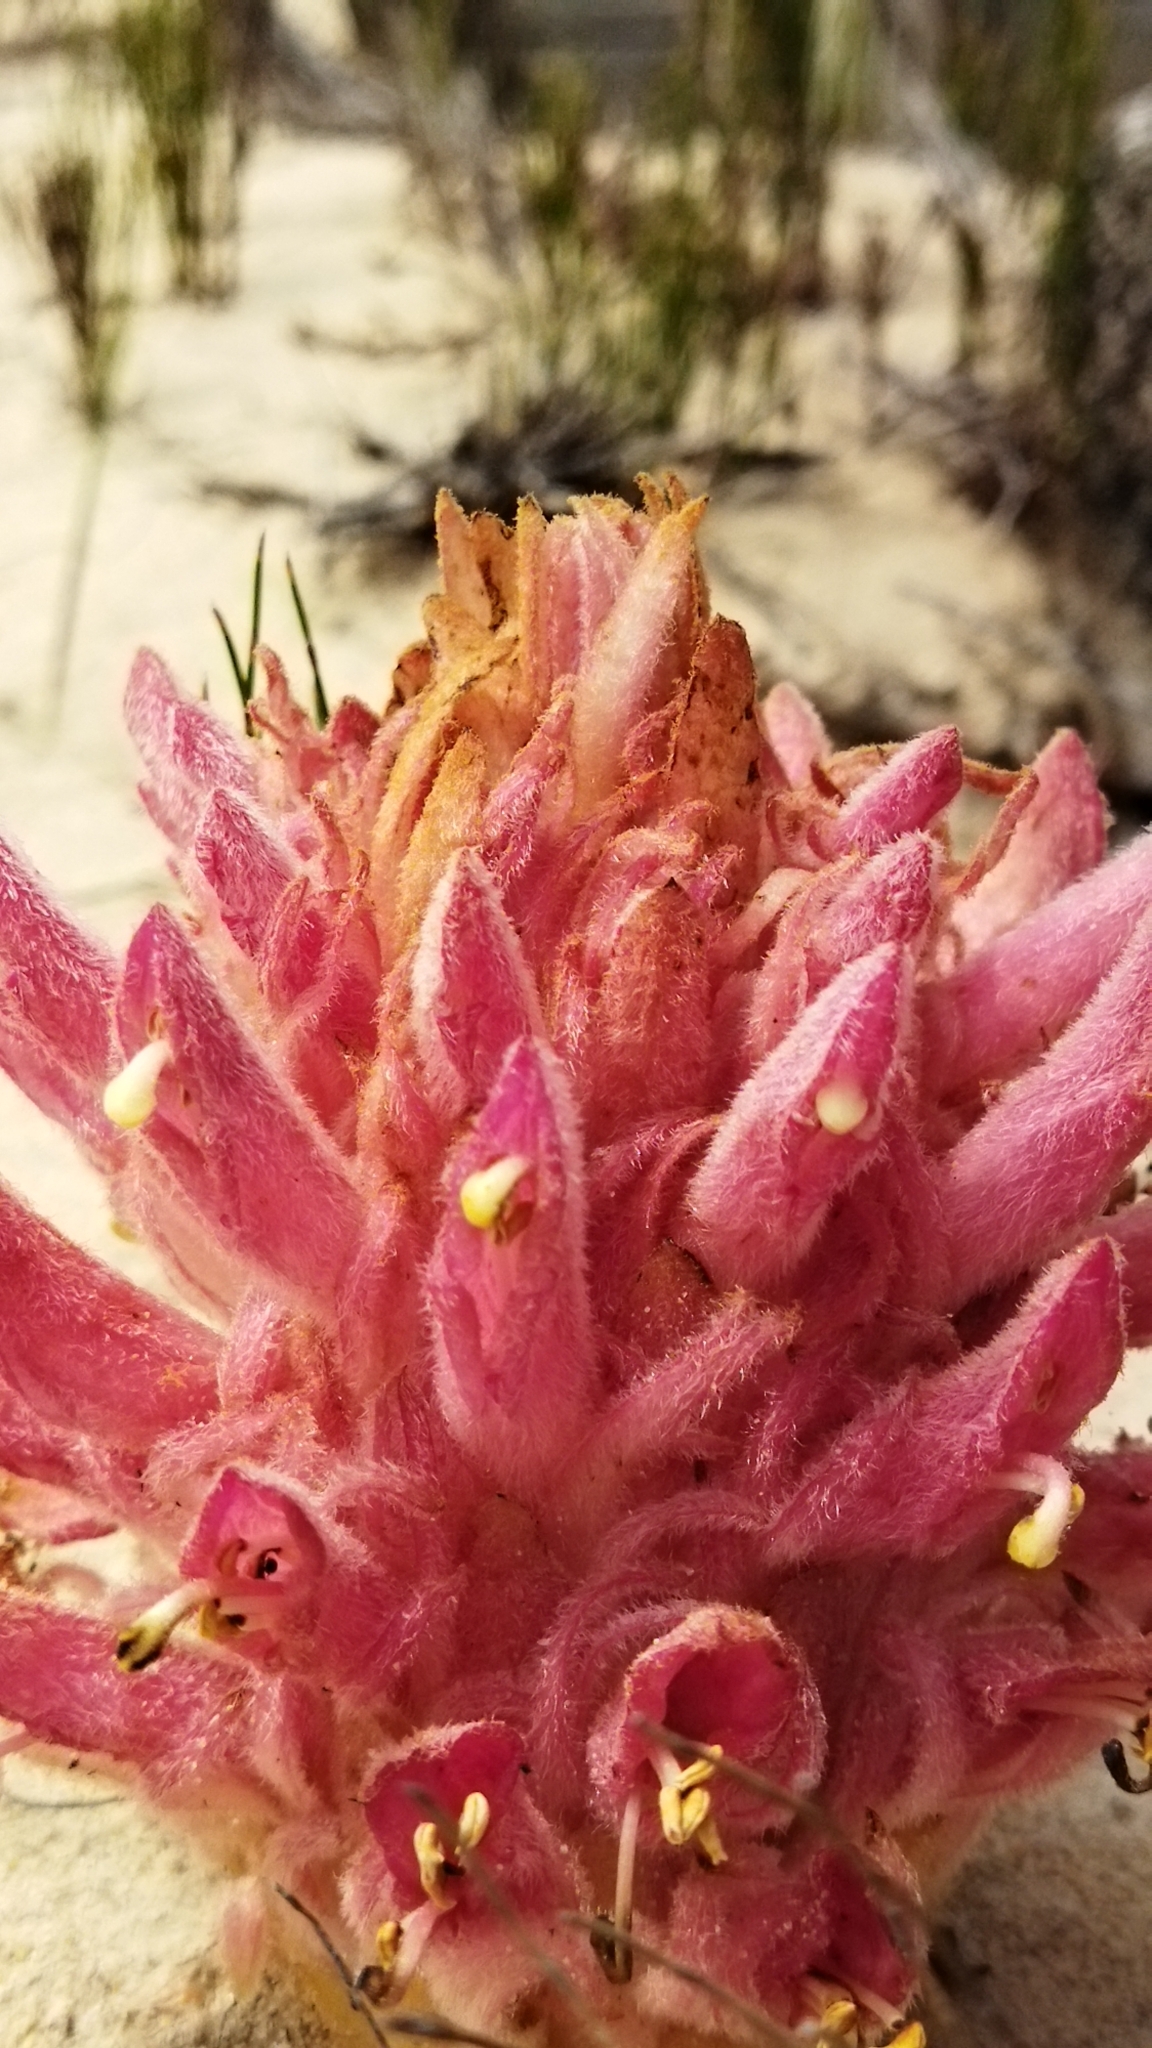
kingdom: Plantae
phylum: Tracheophyta
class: Magnoliopsida
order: Lamiales
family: Orobanchaceae
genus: Hyobanche
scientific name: Hyobanche robusta
